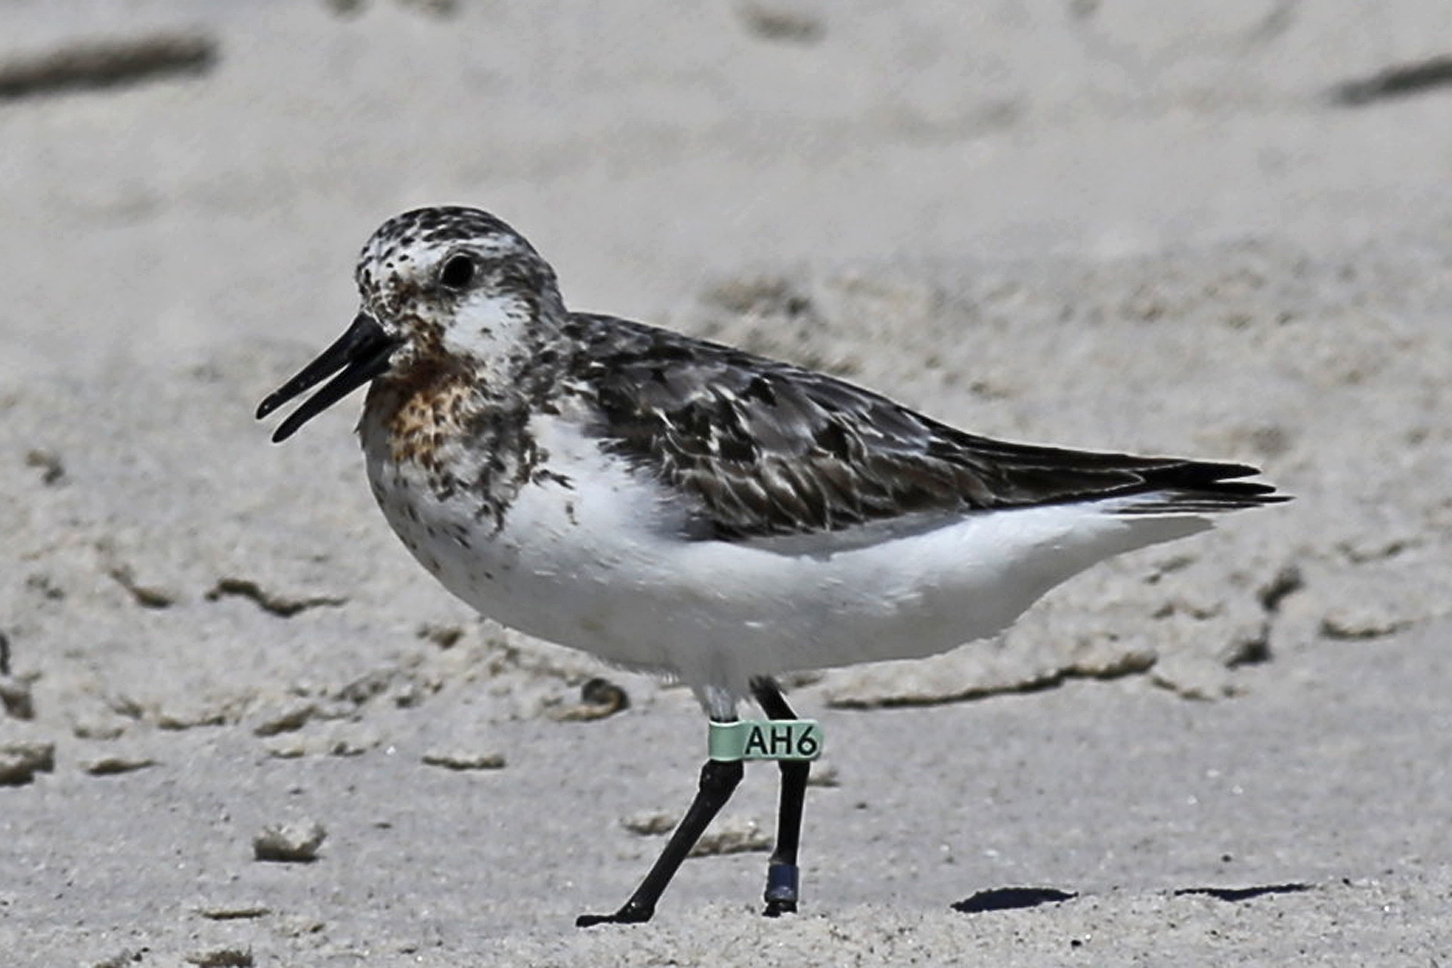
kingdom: Animalia
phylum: Chordata
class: Aves
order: Charadriiformes
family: Scolopacidae
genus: Calidris
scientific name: Calidris alba
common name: Sanderling
